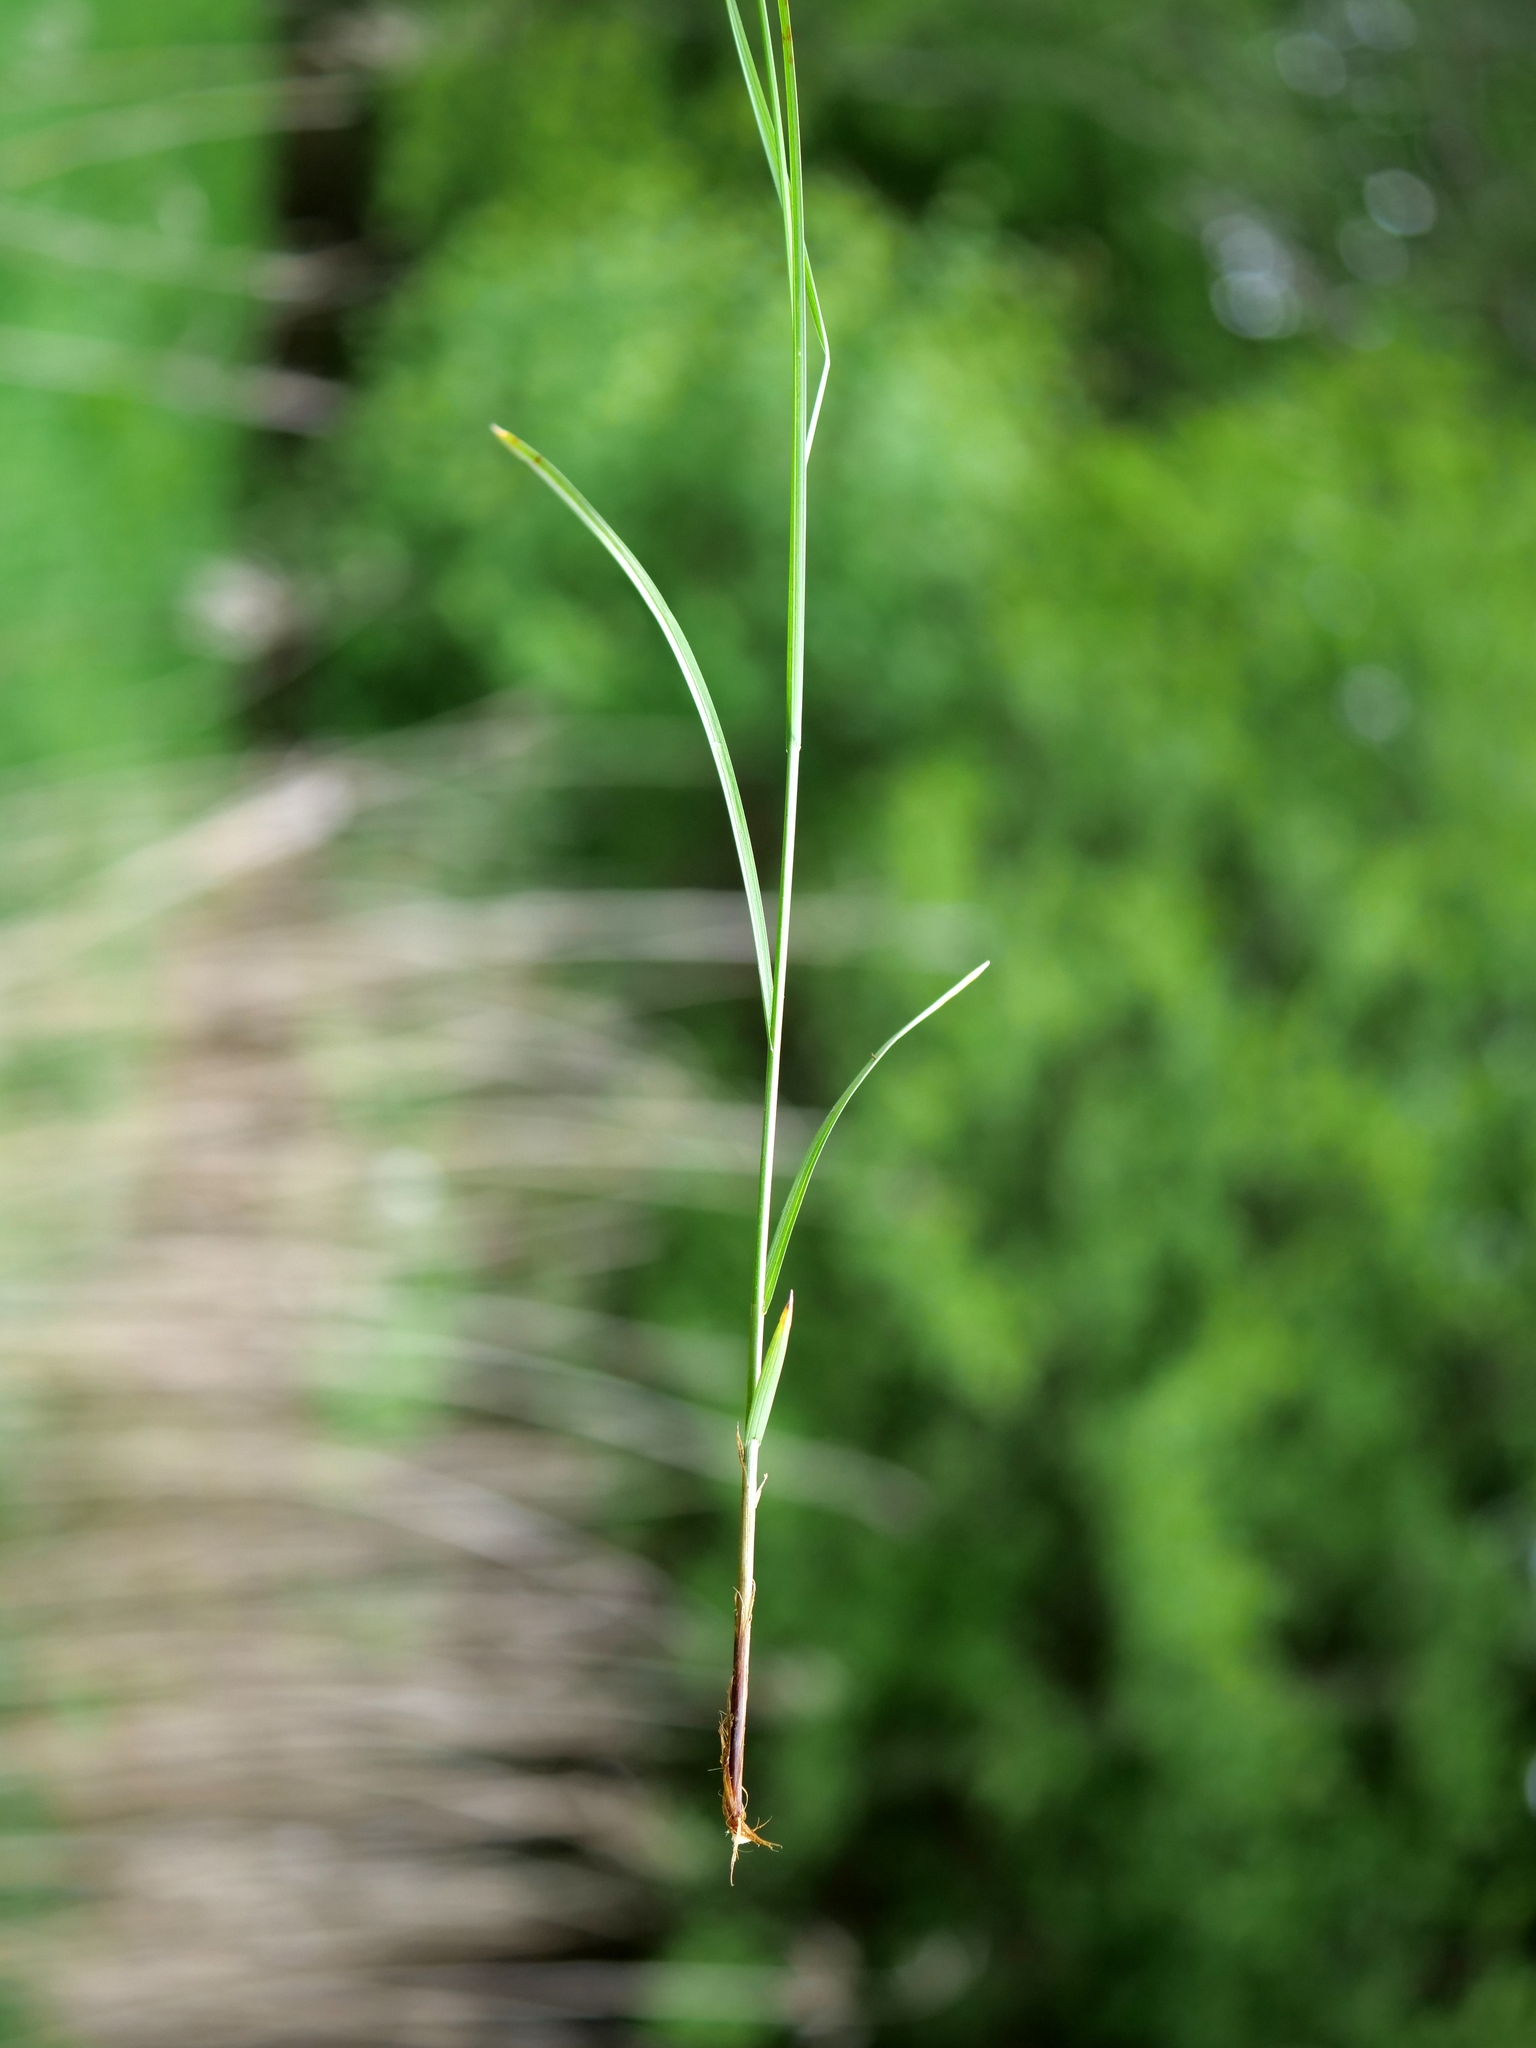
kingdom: Plantae
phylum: Tracheophyta
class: Liliopsida
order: Poales
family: Cyperaceae
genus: Carex
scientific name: Carex brizoides
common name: Quaking-grass sedge
